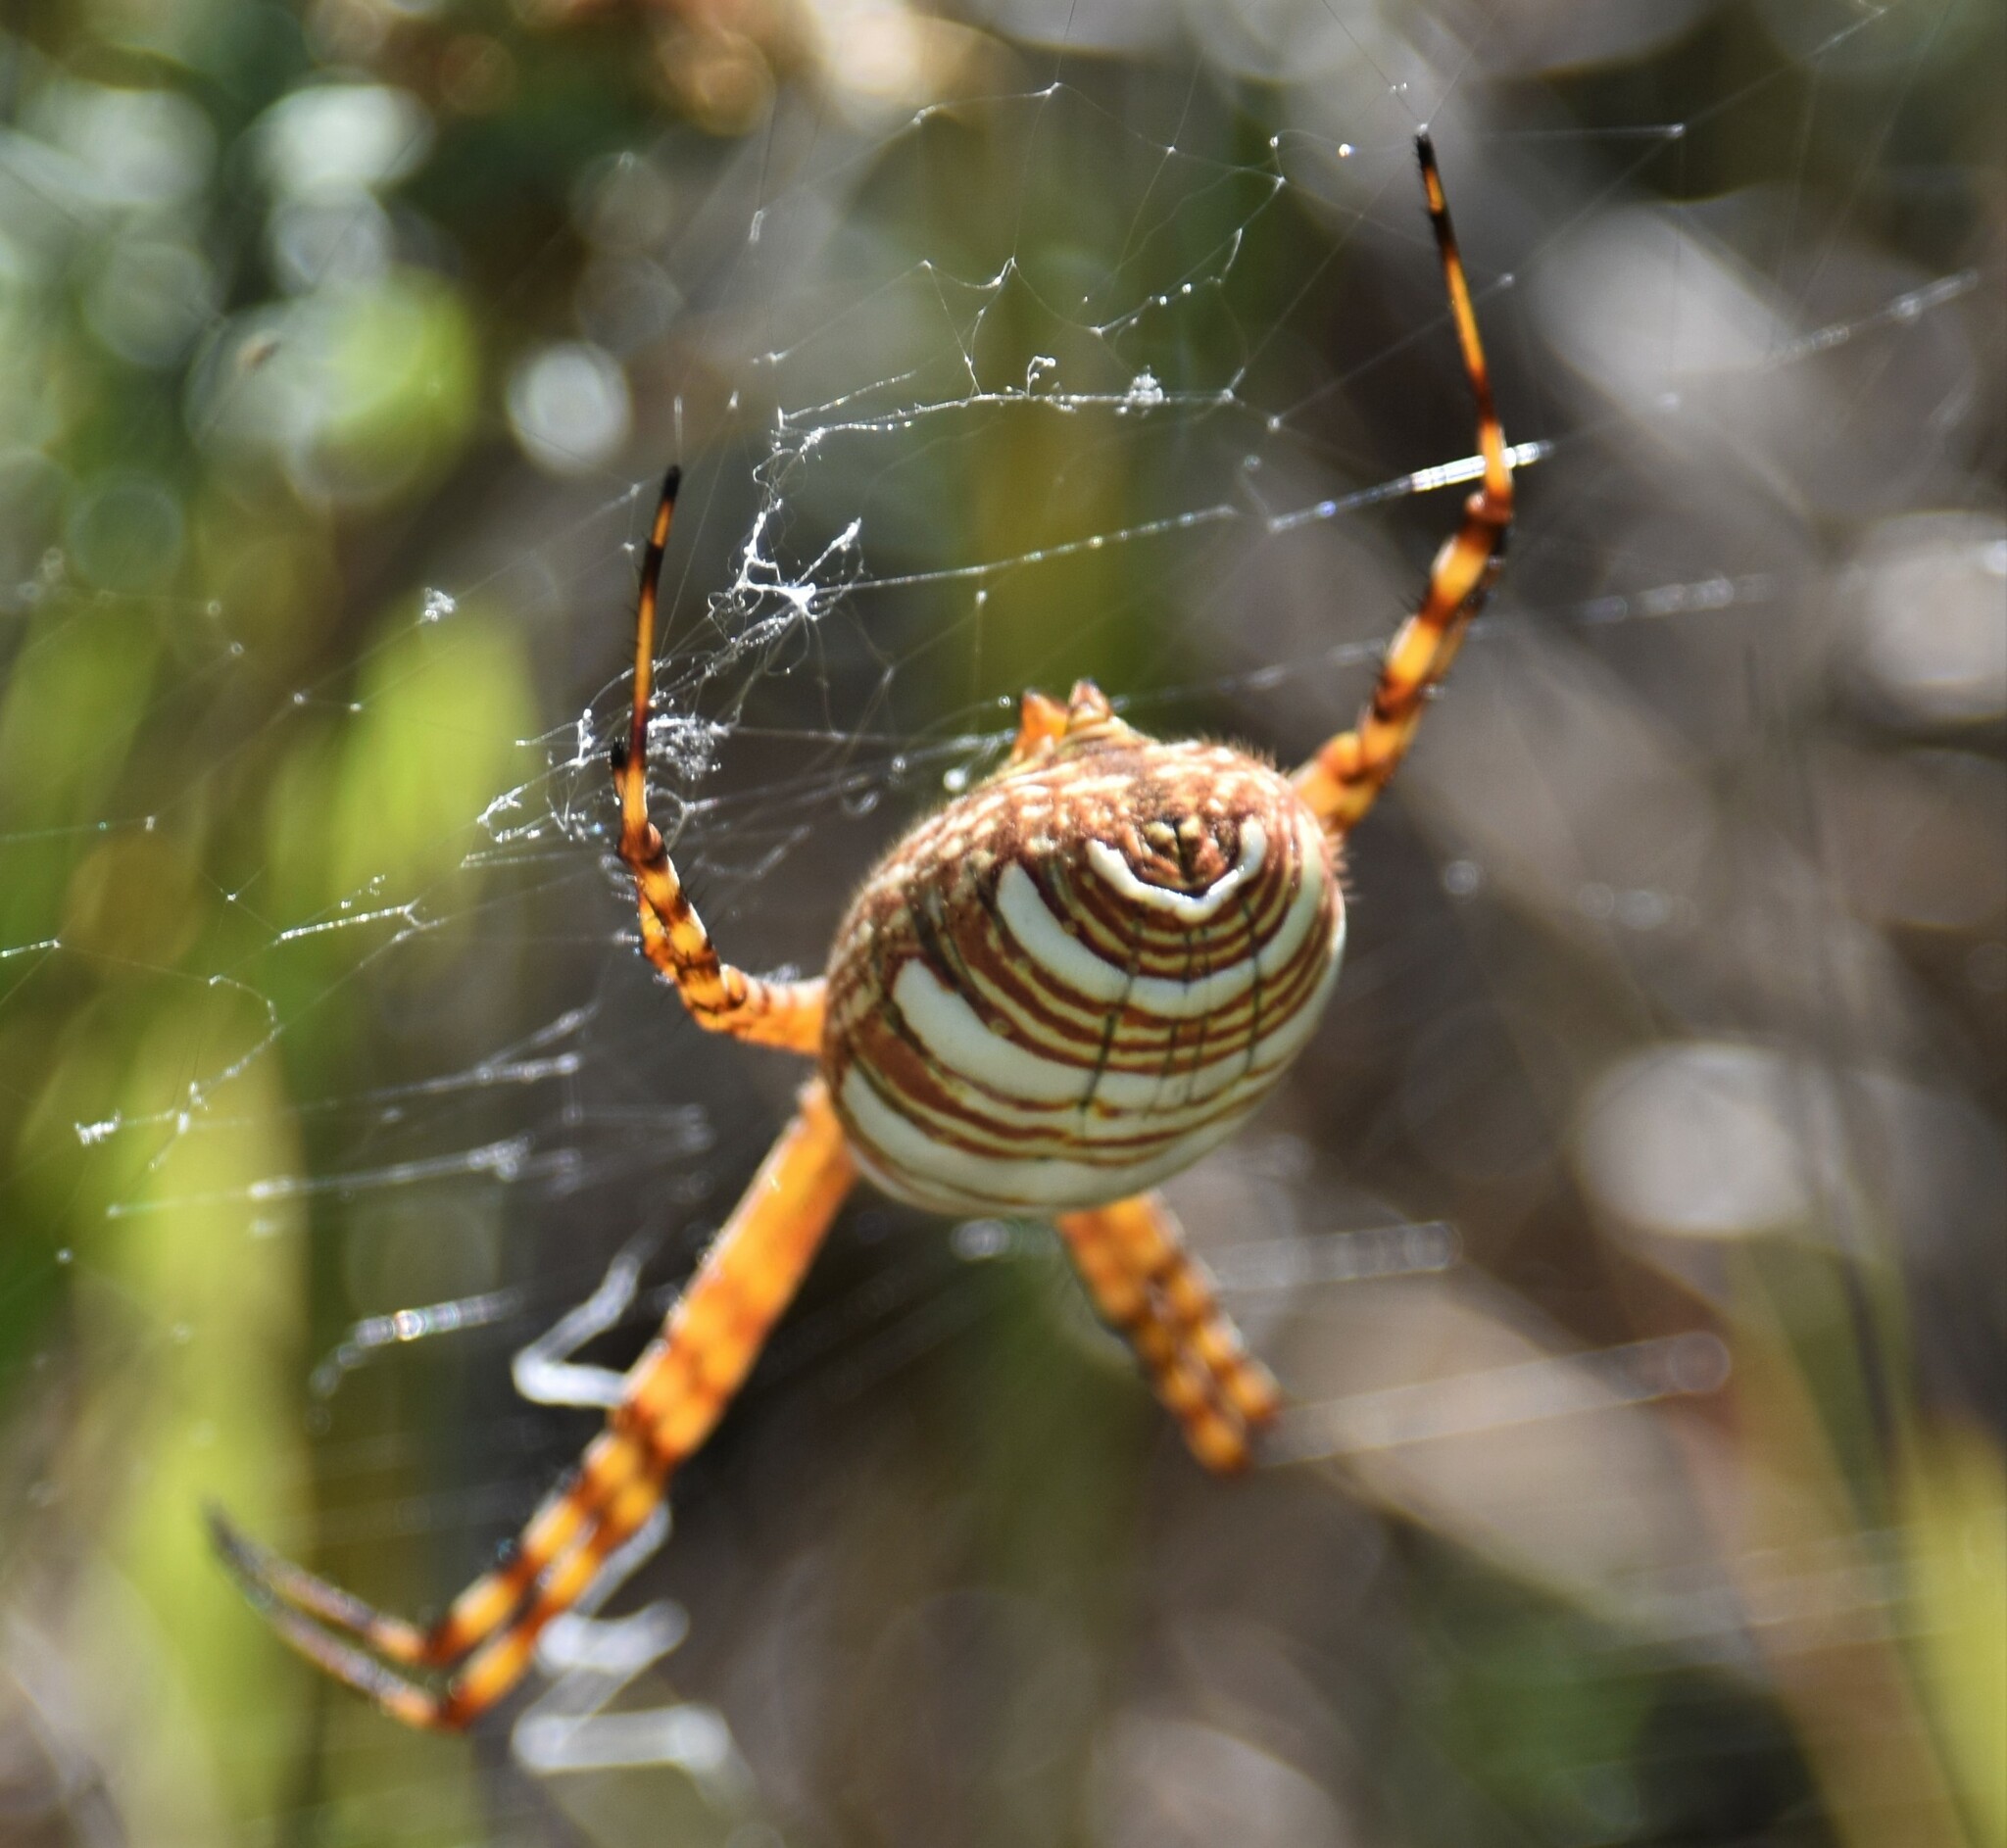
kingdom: Animalia
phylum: Arthropoda
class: Arachnida
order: Araneae
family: Araneidae
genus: Argiope
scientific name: Argiope trifasciata
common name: Banded garden spider
